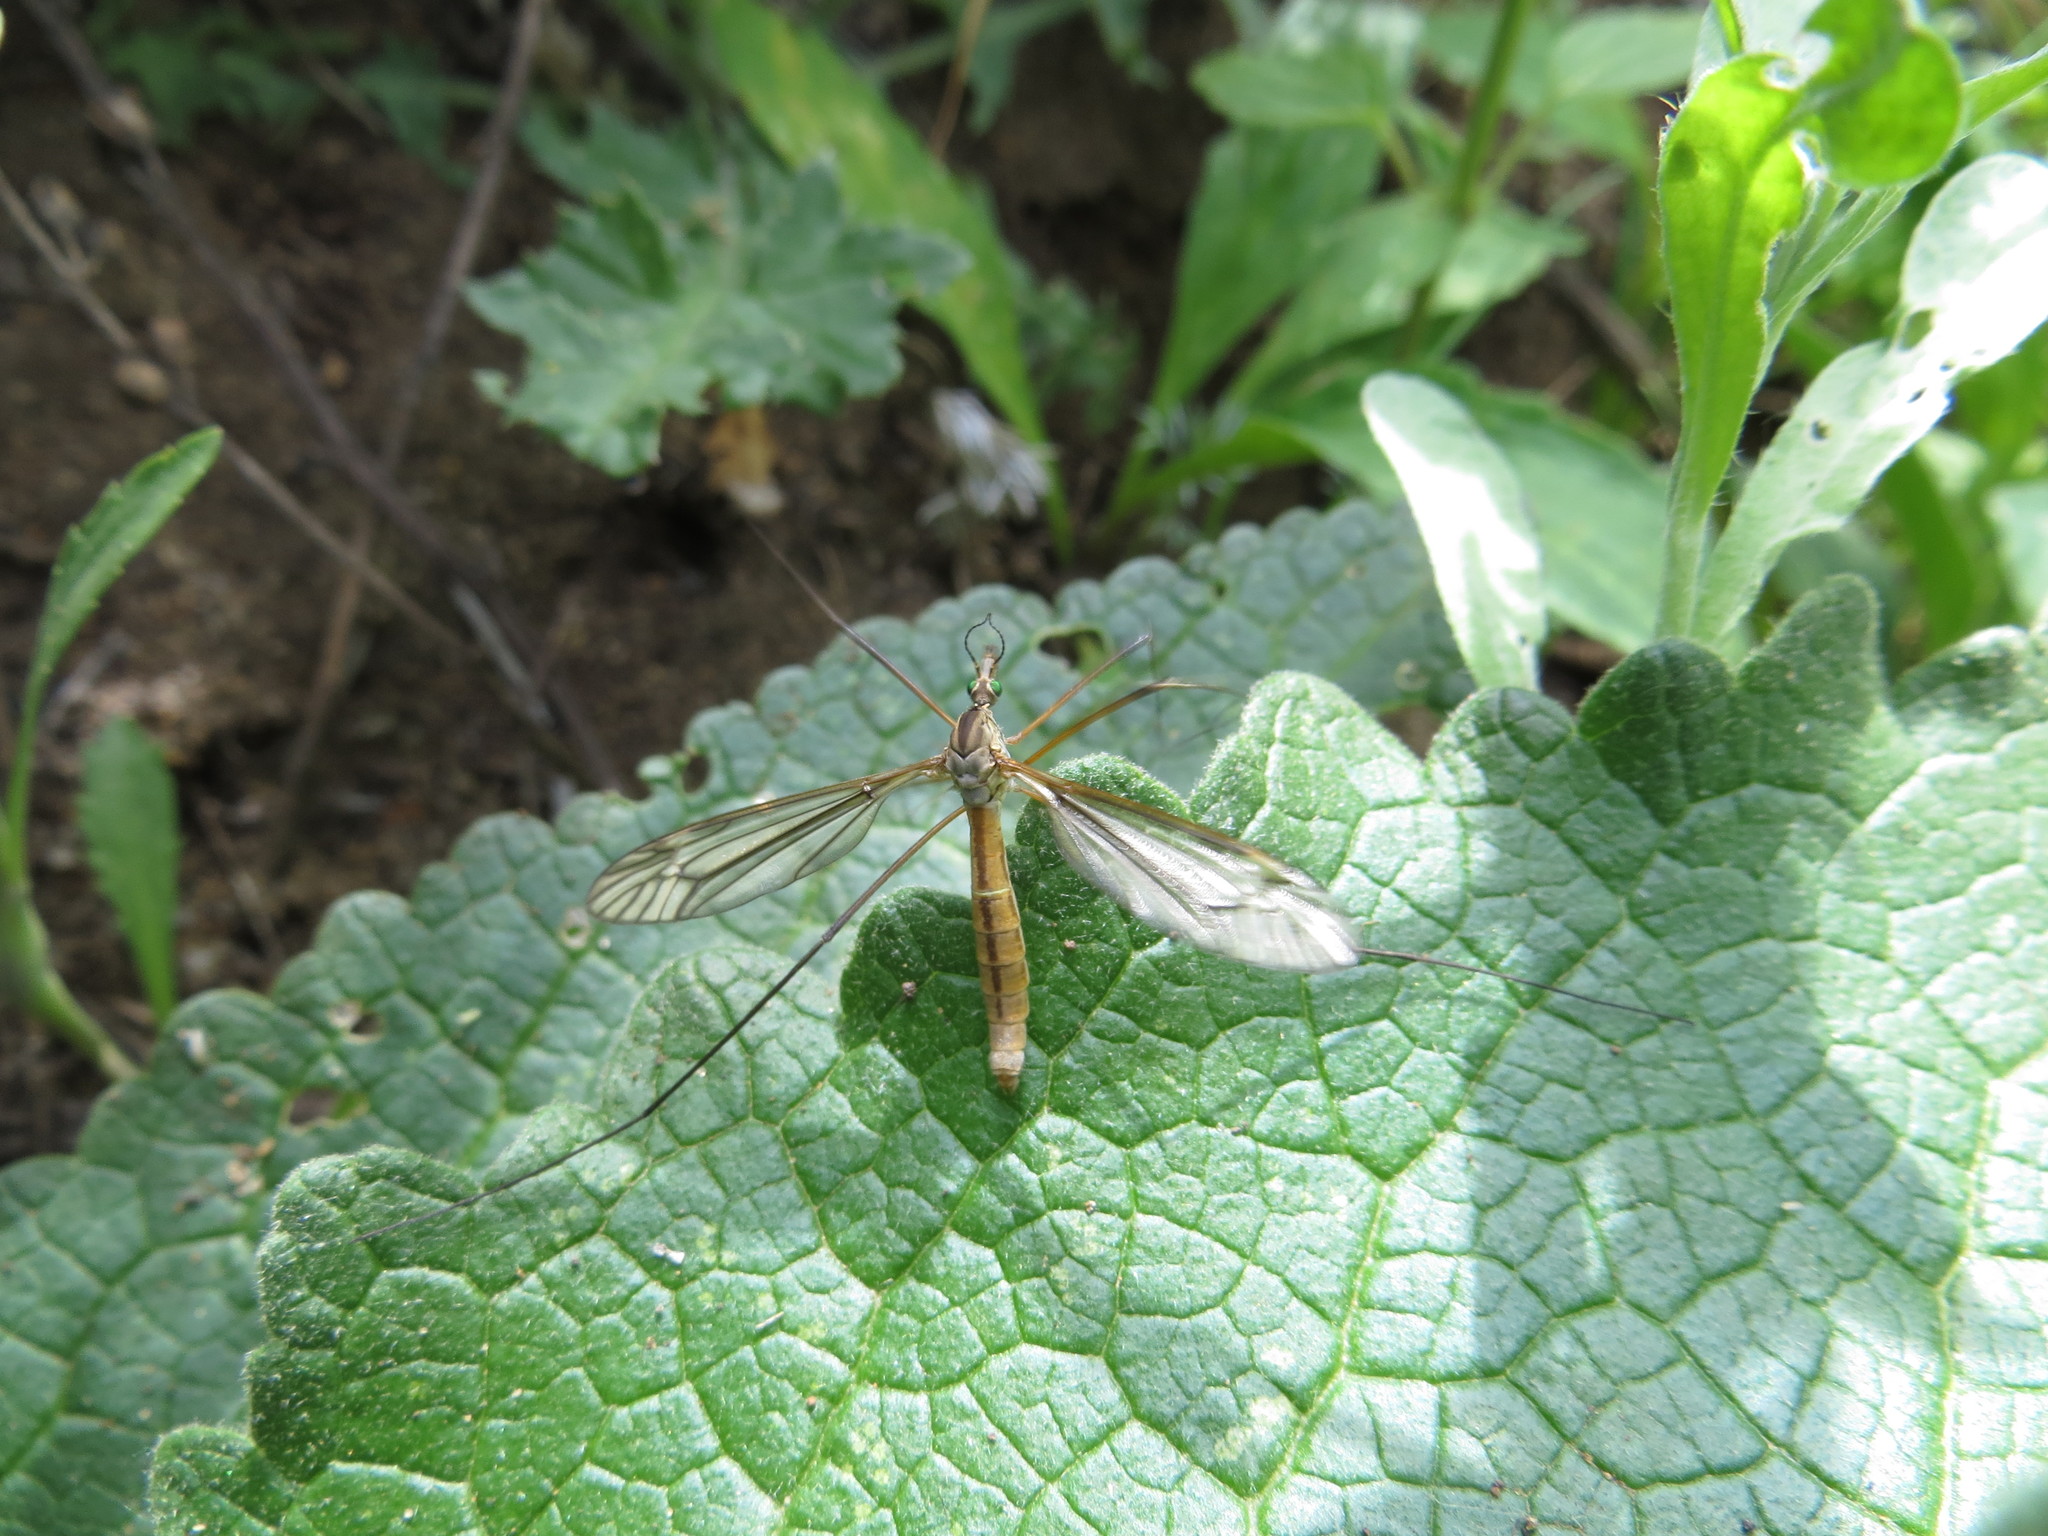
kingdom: Animalia
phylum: Arthropoda
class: Insecta
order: Diptera
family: Tipulidae
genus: Tipula
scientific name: Tipula vernalis
